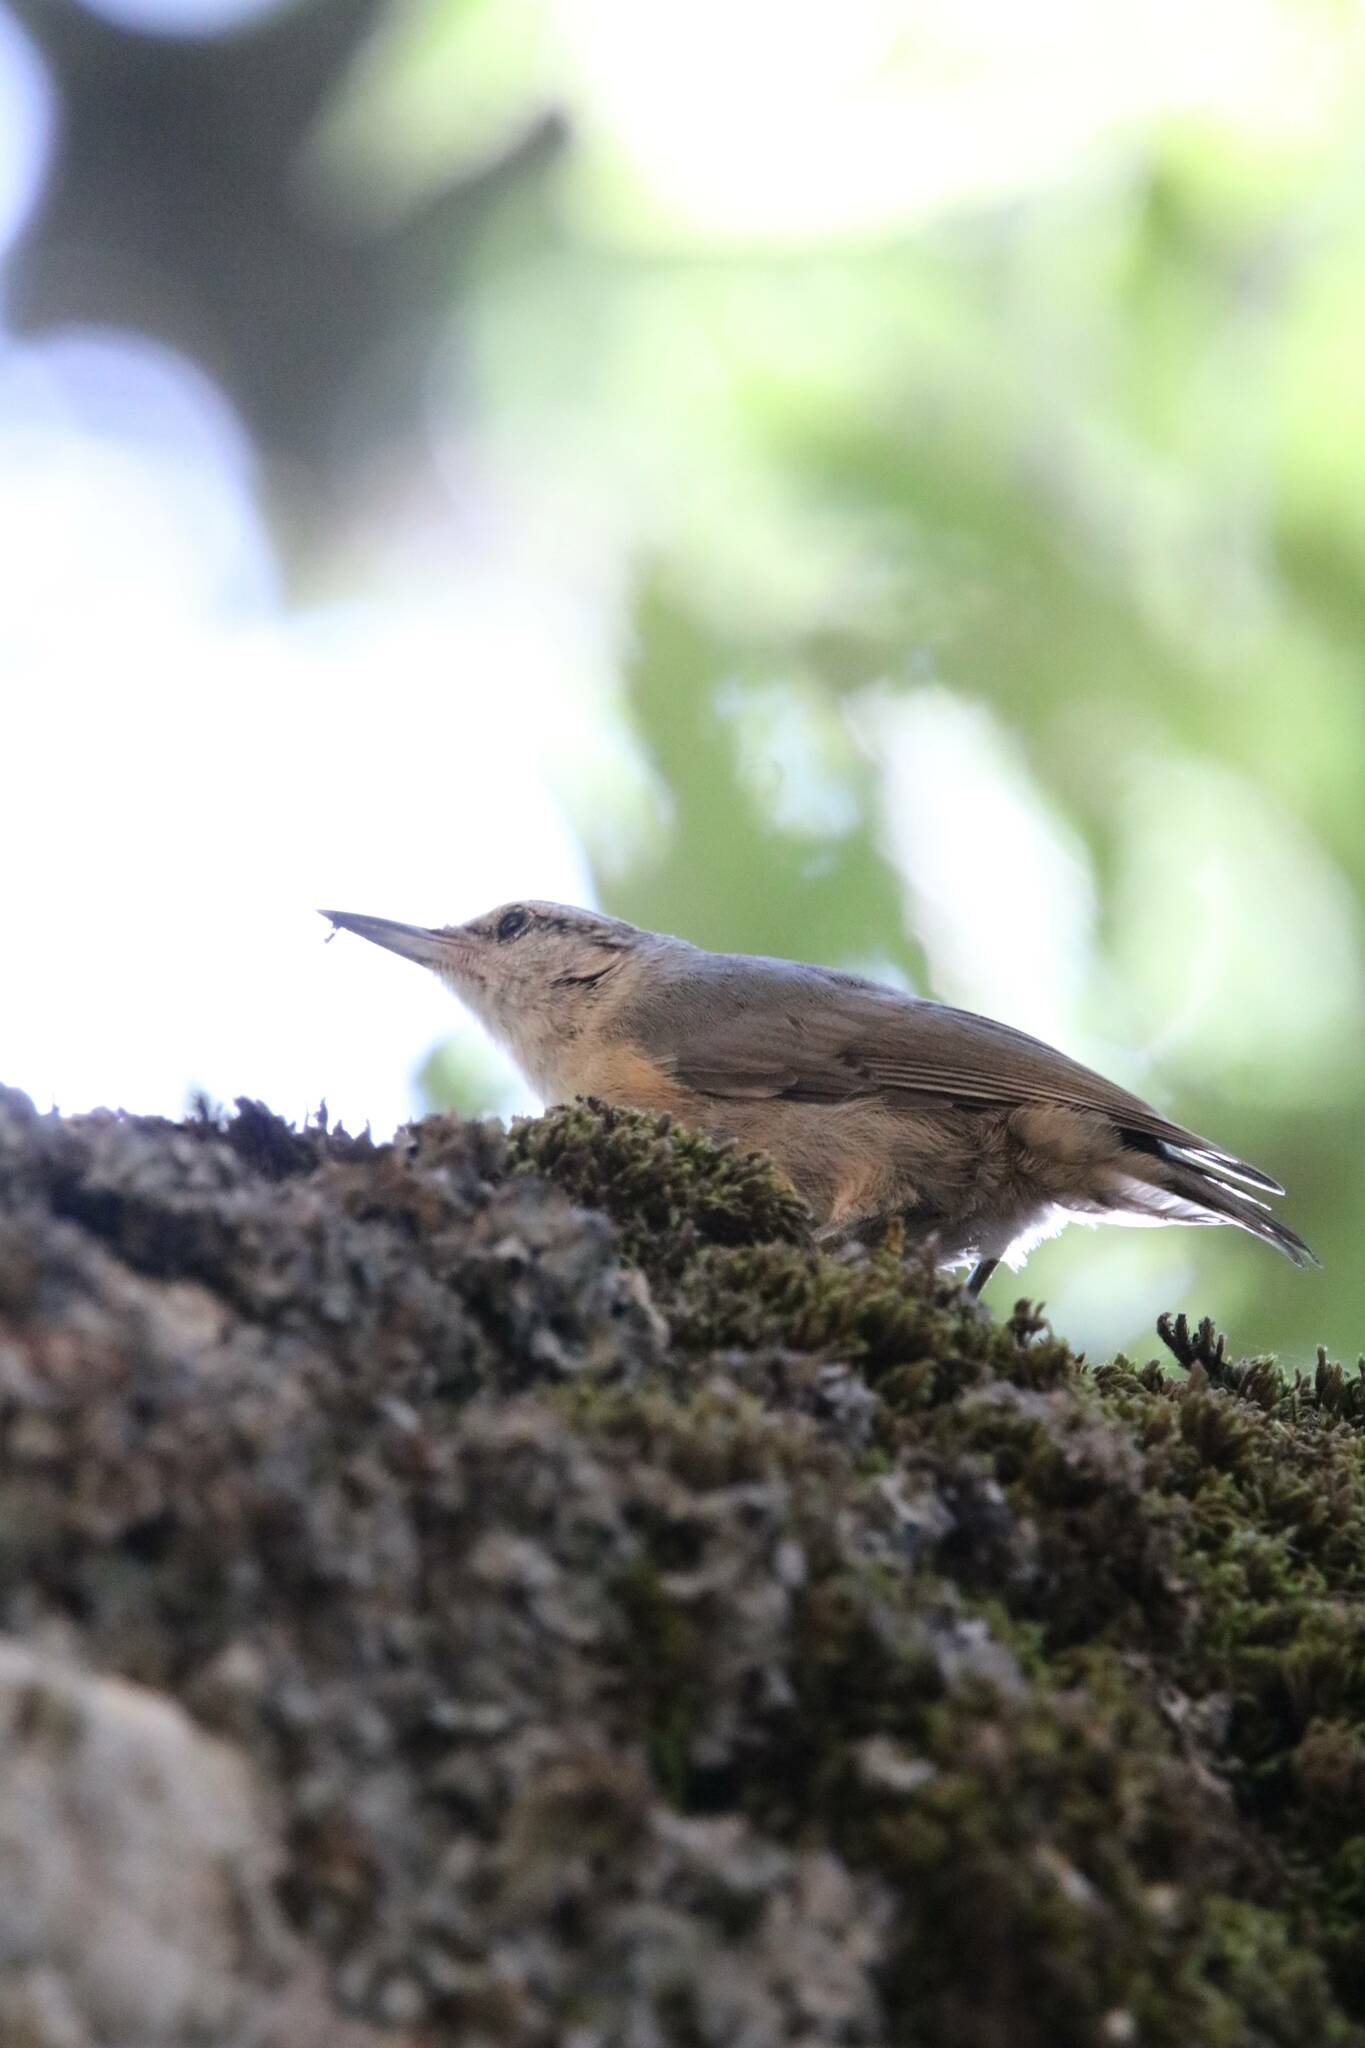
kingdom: Animalia
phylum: Chordata
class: Aves
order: Passeriformes
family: Sittidae
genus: Sitta
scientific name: Sitta ledanti
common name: Algerian nuthatch
